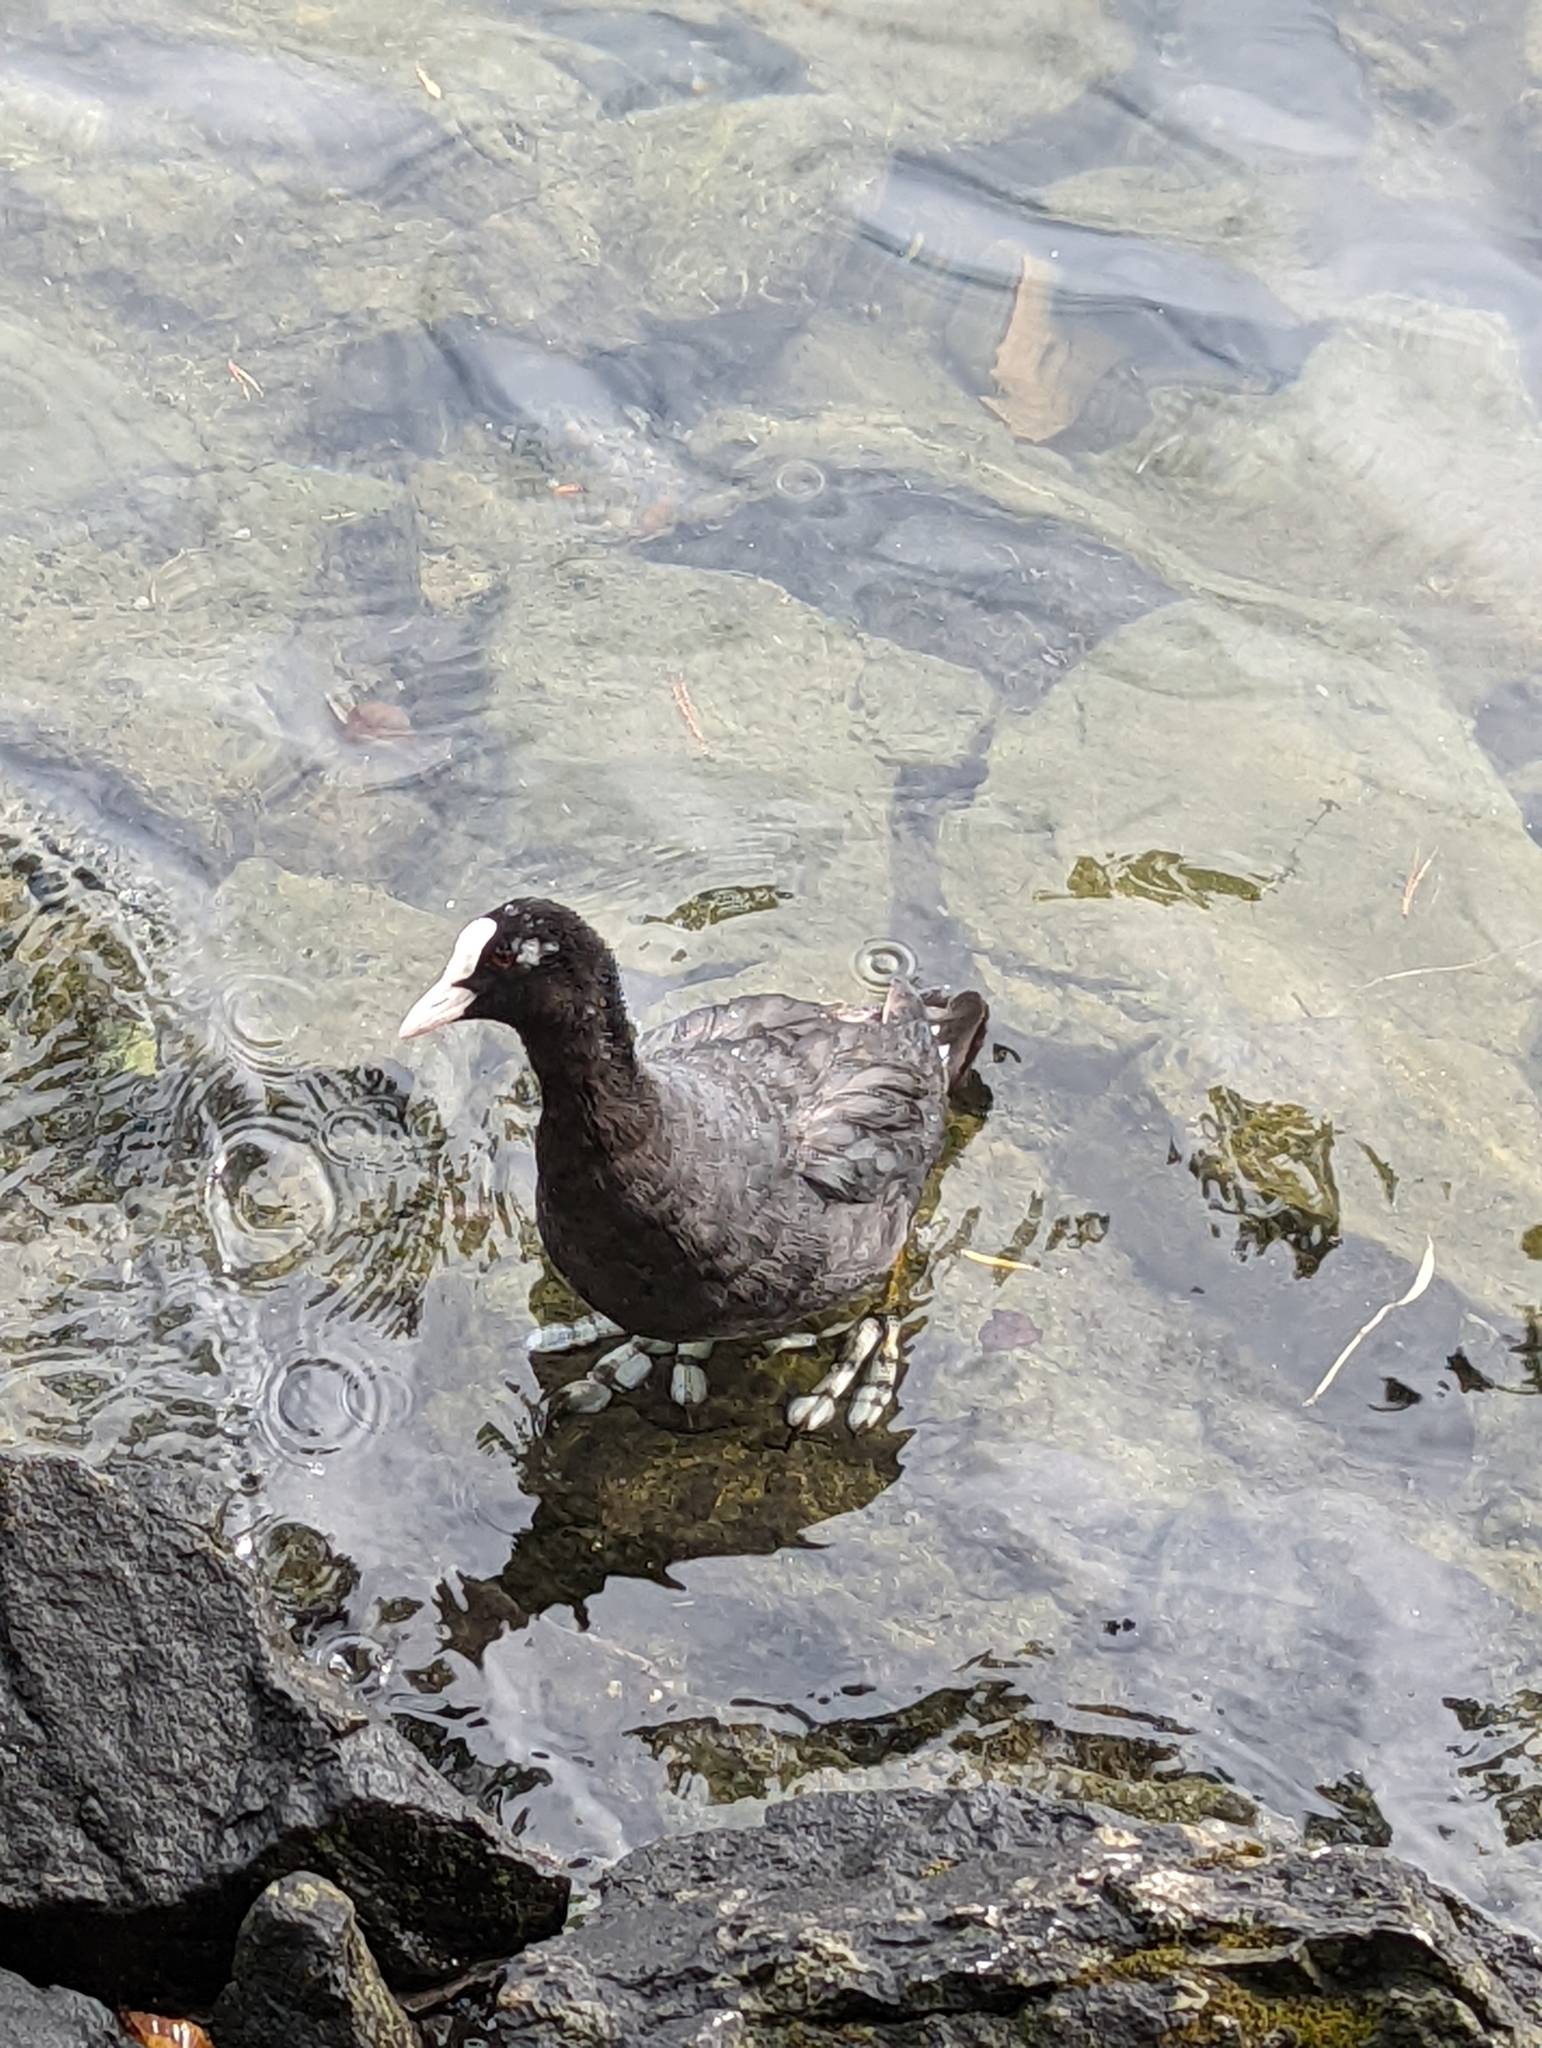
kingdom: Animalia
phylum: Chordata
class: Aves
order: Gruiformes
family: Rallidae
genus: Fulica
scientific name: Fulica atra
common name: Eurasian coot
